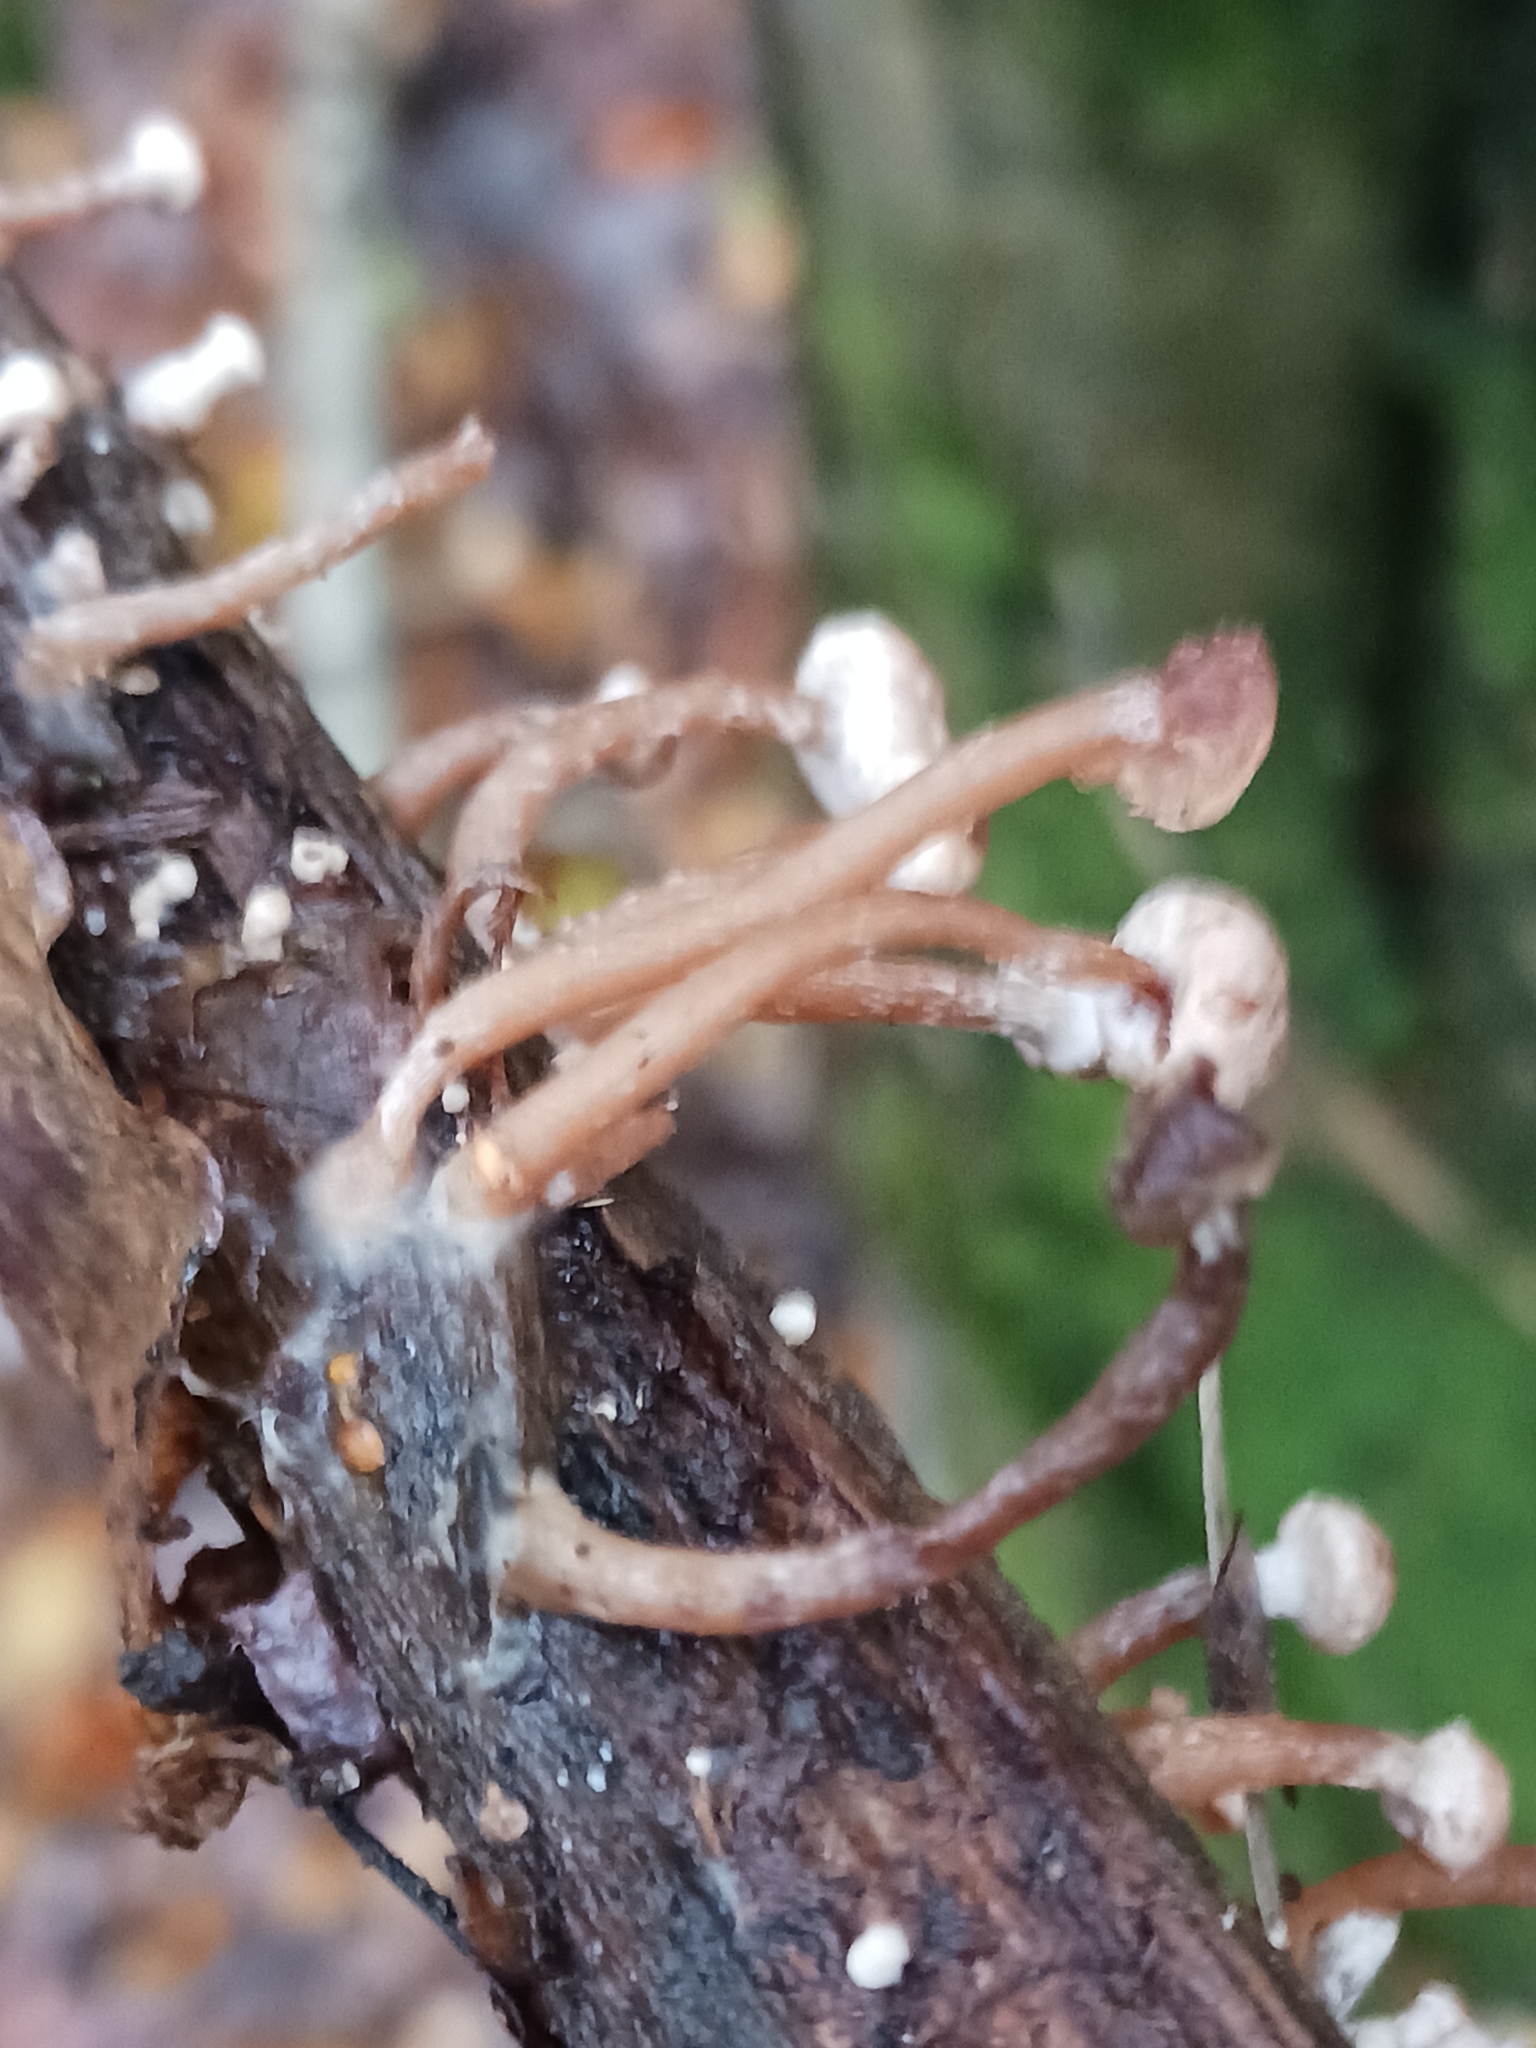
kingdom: Fungi
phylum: Basidiomycota
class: Agaricomycetes
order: Agaricales
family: Tubariaceae
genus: Tubaria
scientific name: Tubaria conspersa
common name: Felted twiglet
